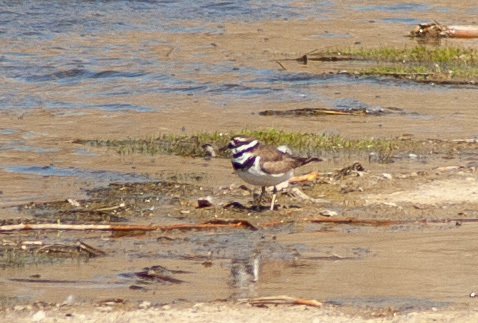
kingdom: Animalia
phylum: Chordata
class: Aves
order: Charadriiformes
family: Charadriidae
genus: Charadrius
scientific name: Charadrius vociferus
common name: Killdeer
